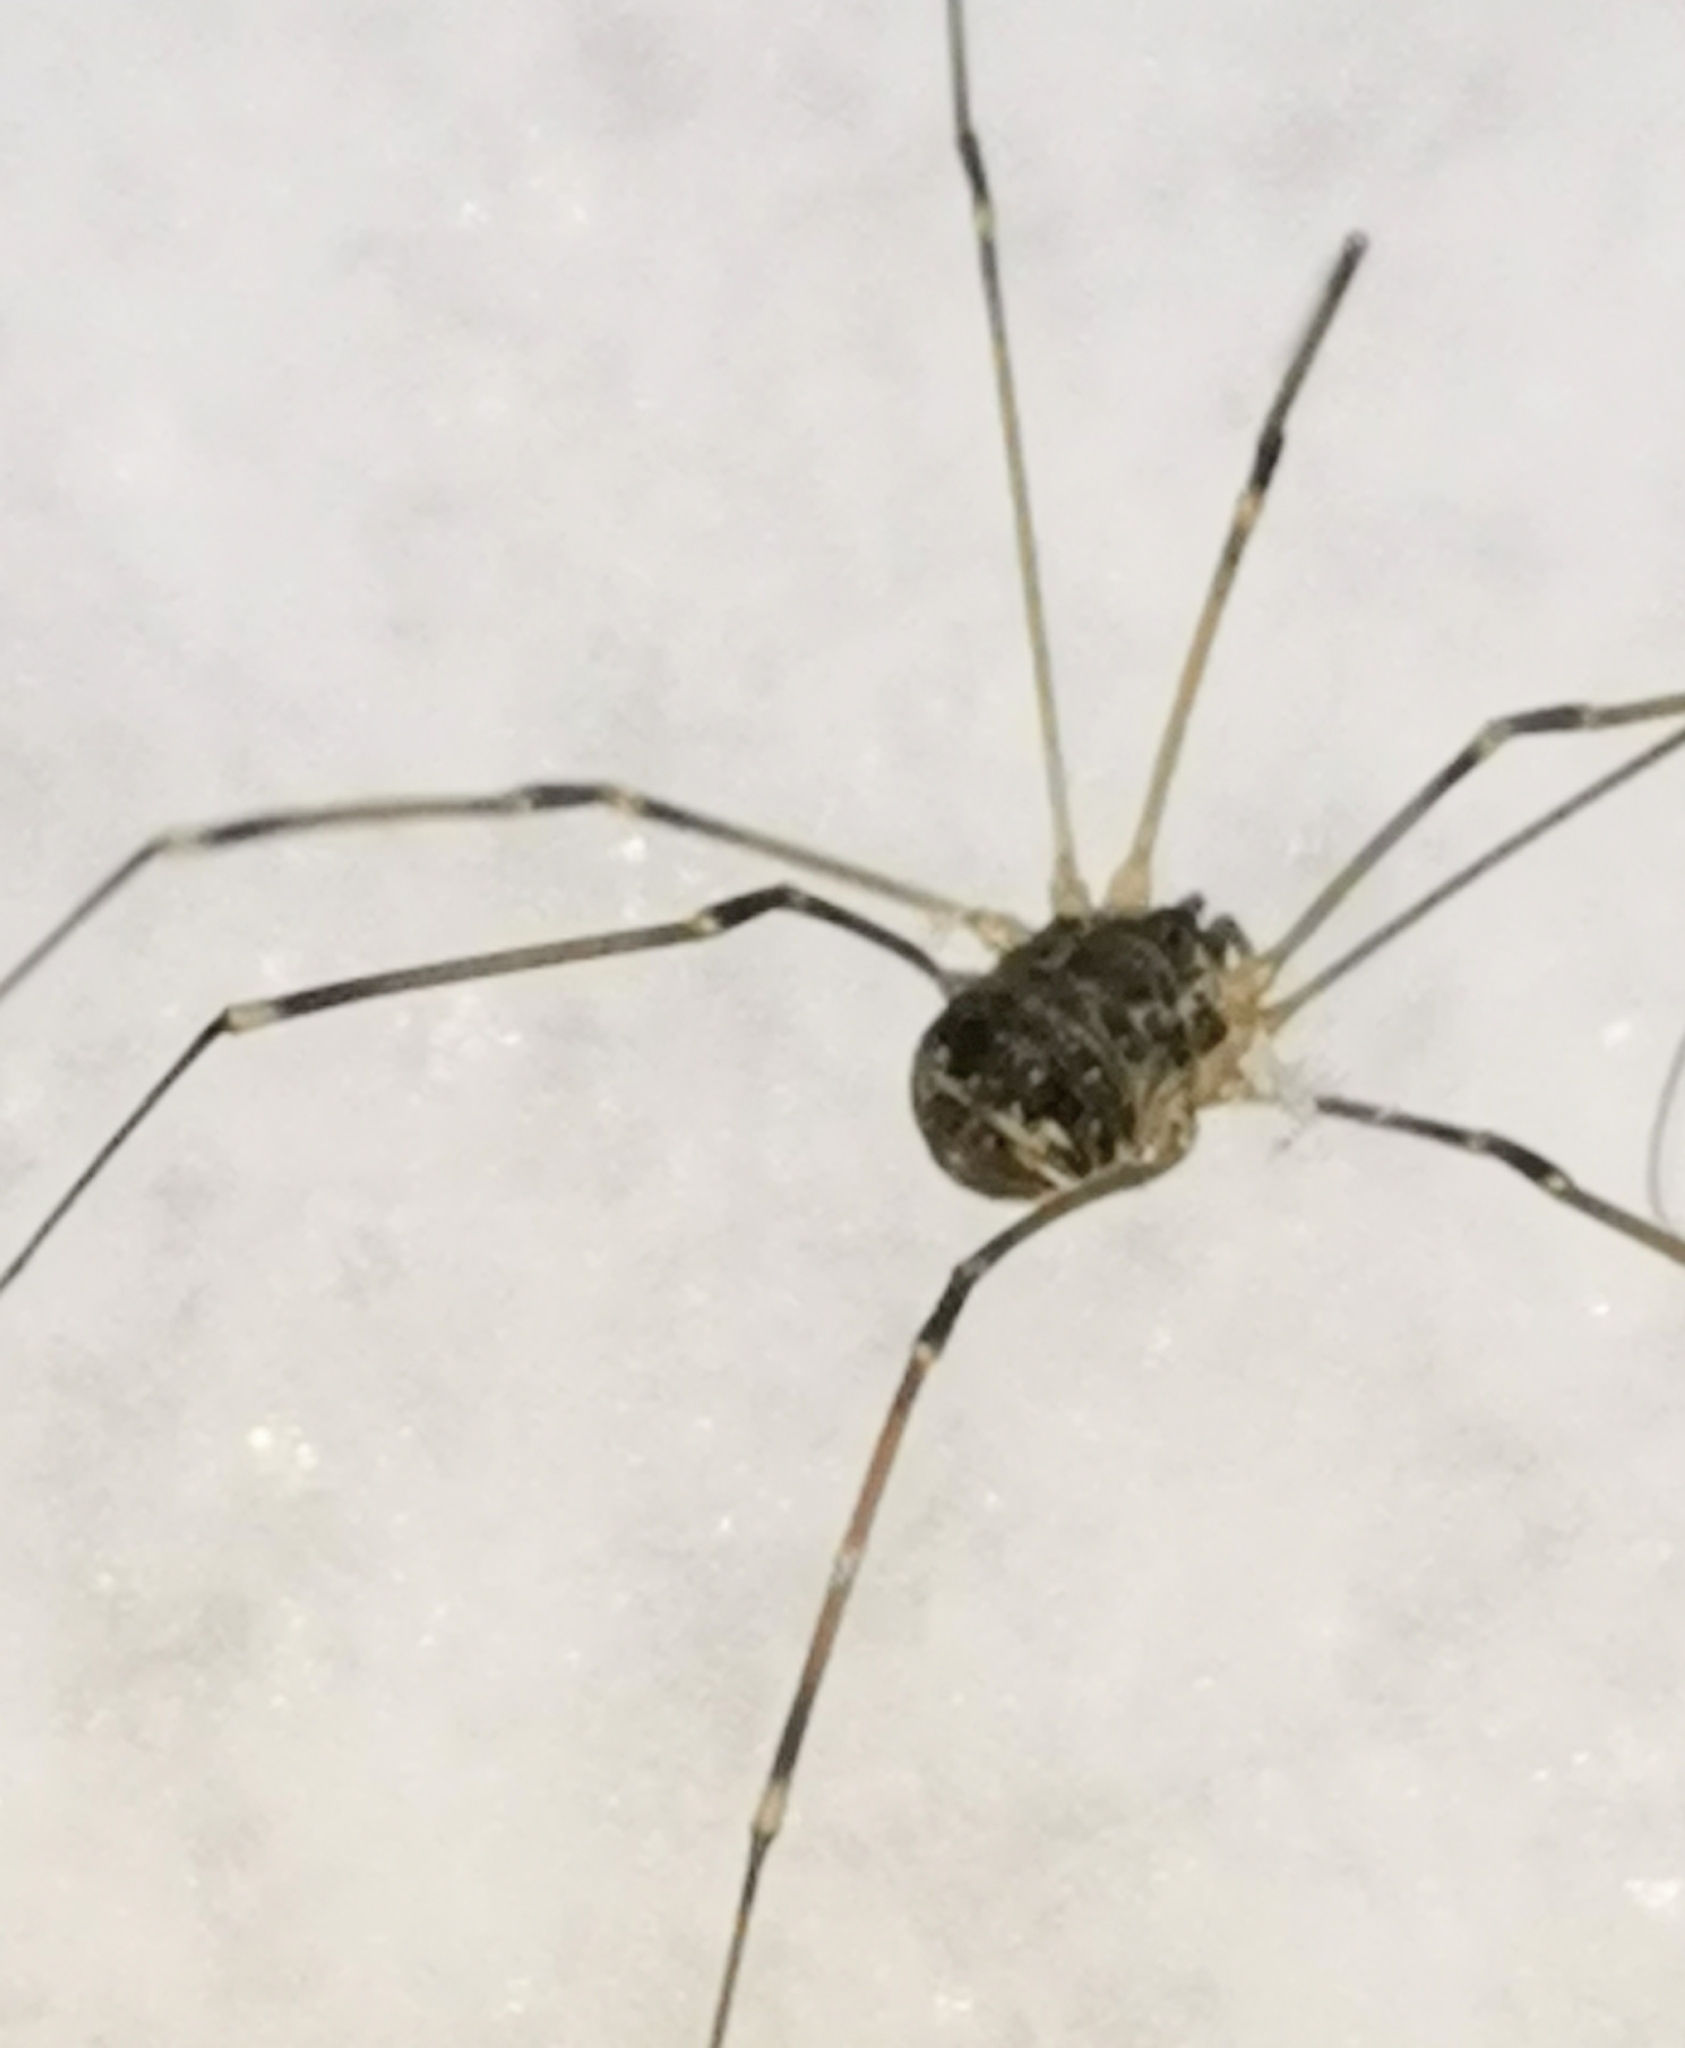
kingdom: Animalia
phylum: Arthropoda
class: Arachnida
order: Opiliones
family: Sclerosomatidae
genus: Leiobunum
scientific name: Leiobunum gracile
